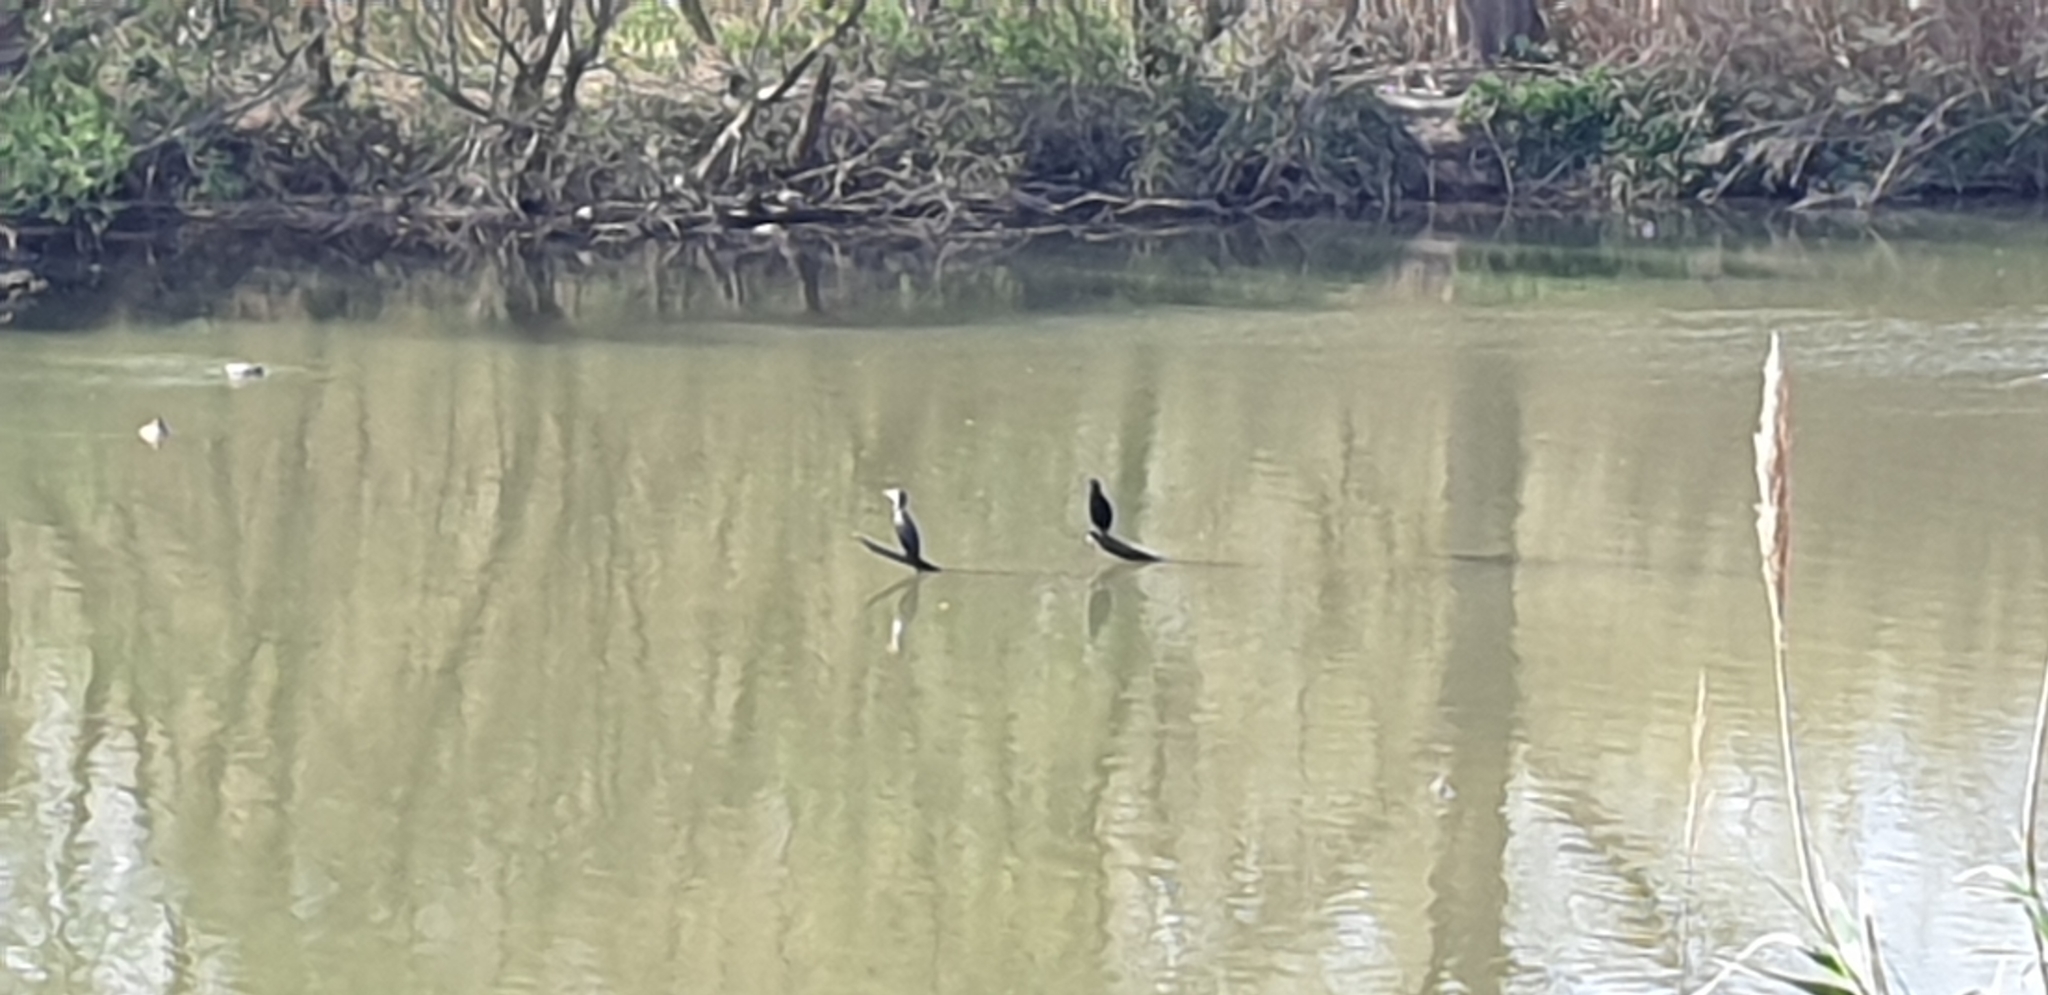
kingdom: Animalia
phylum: Chordata
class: Aves
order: Suliformes
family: Phalacrocoracidae
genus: Phalacrocorax
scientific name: Phalacrocorax carbo
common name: Great cormorant
